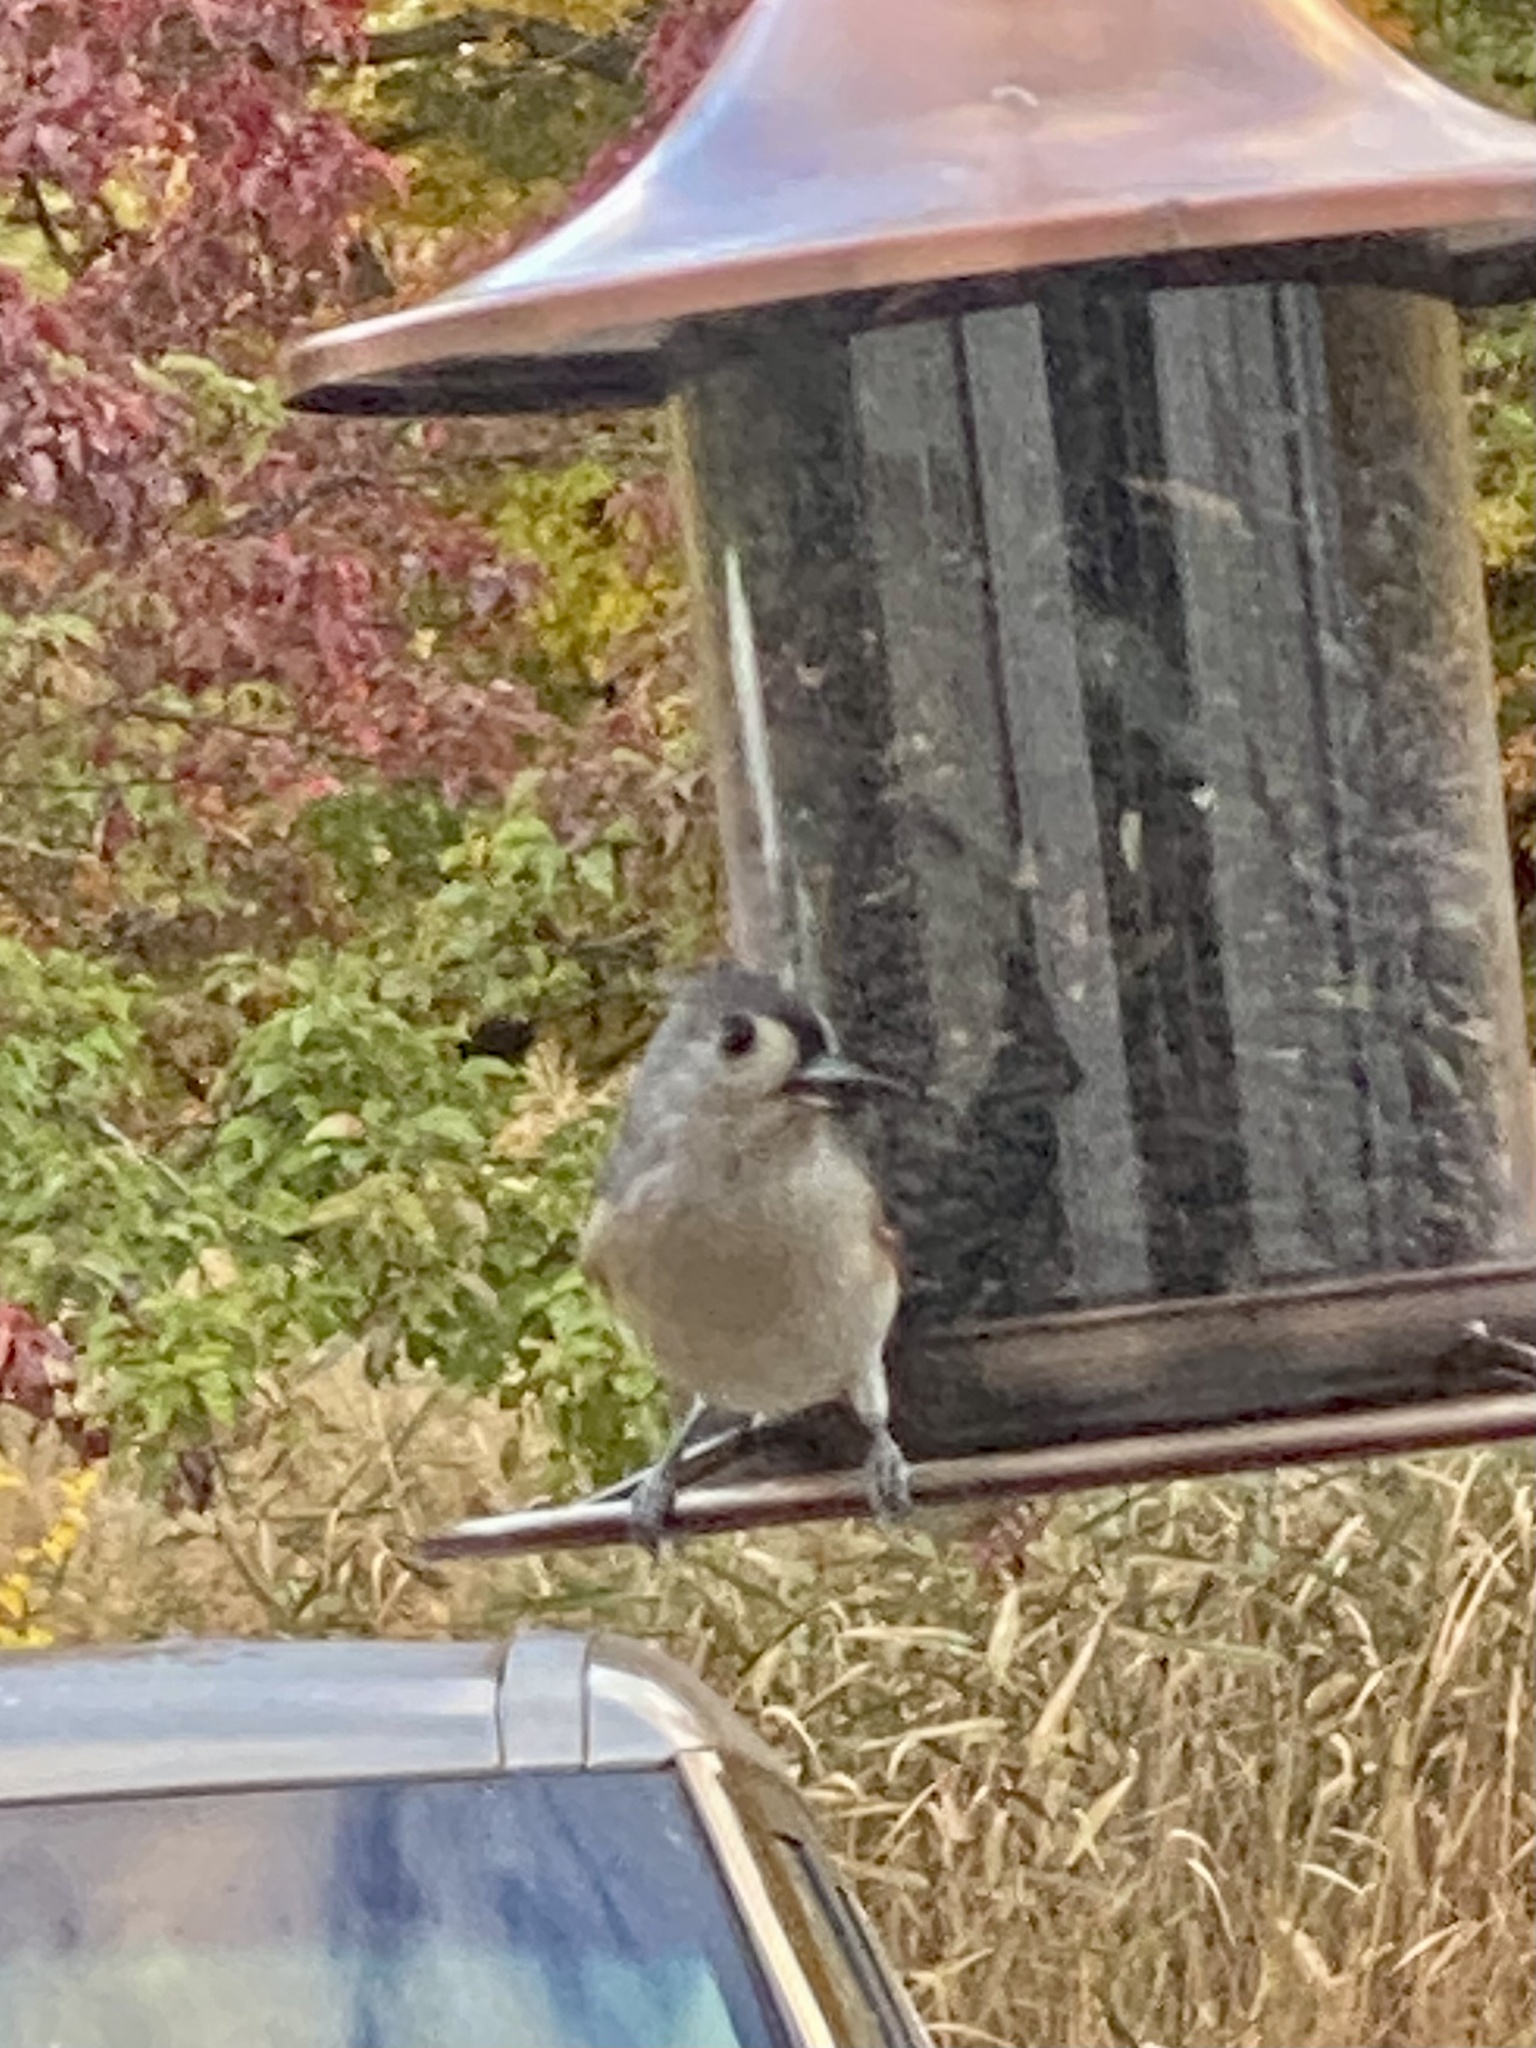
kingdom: Animalia
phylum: Chordata
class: Aves
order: Passeriformes
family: Paridae
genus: Baeolophus
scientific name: Baeolophus bicolor
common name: Tufted titmouse
